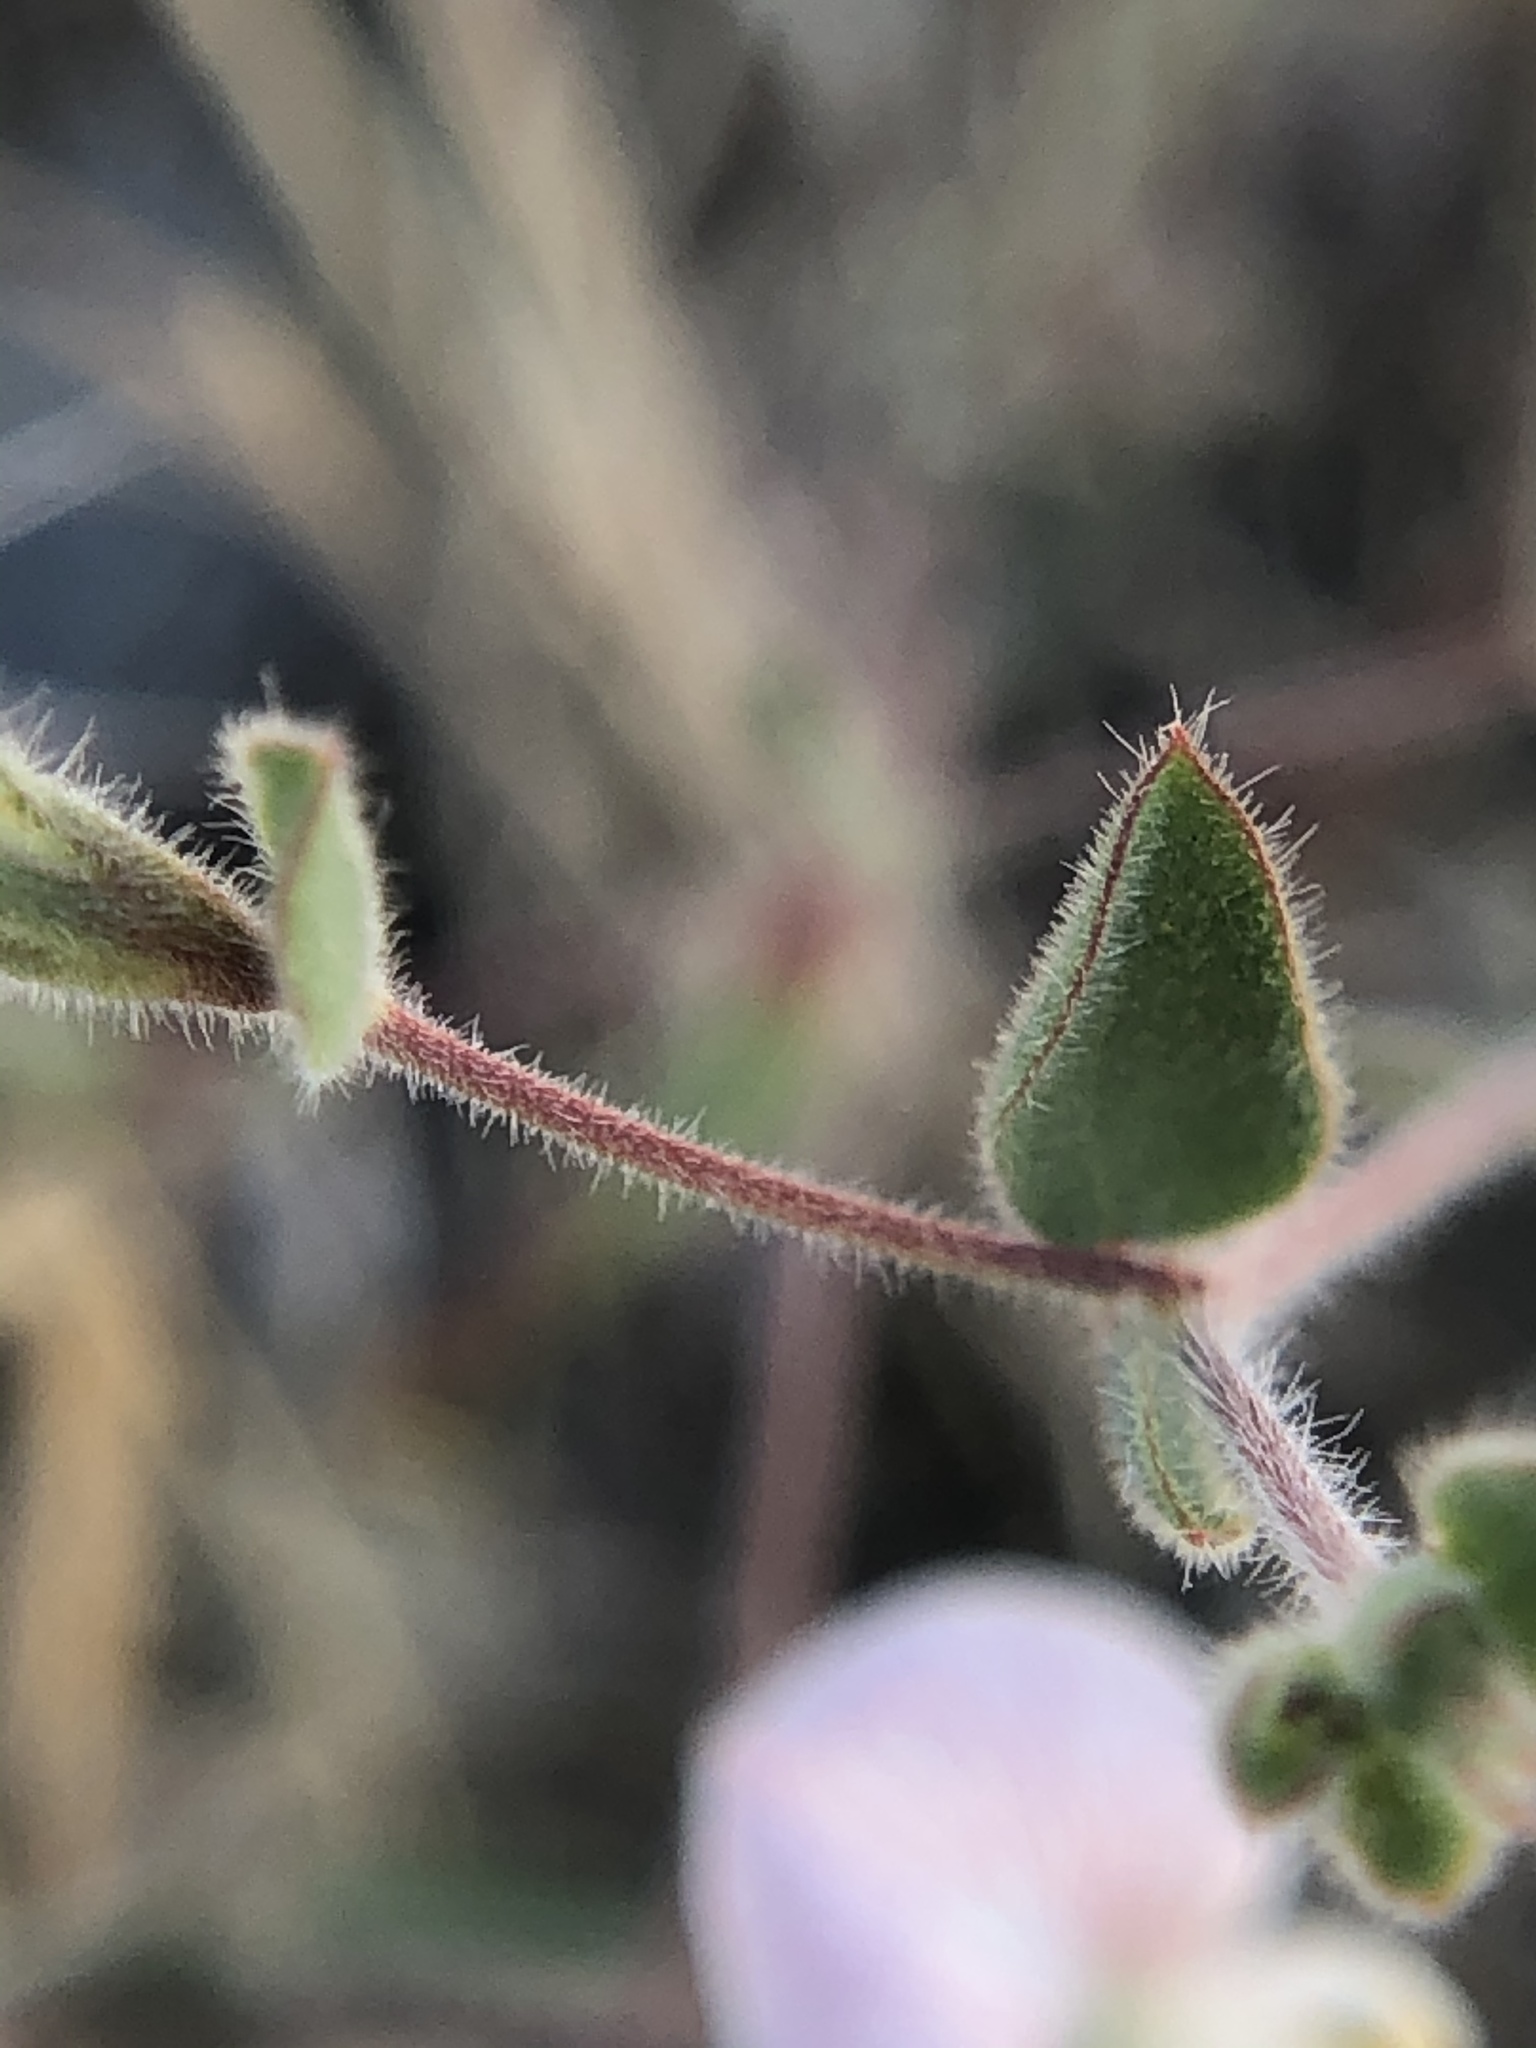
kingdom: Plantae
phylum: Tracheophyta
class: Magnoliopsida
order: Fabales
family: Fabaceae
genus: Acmispon
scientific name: Acmispon americanus
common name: American bird's-foot trefoil
